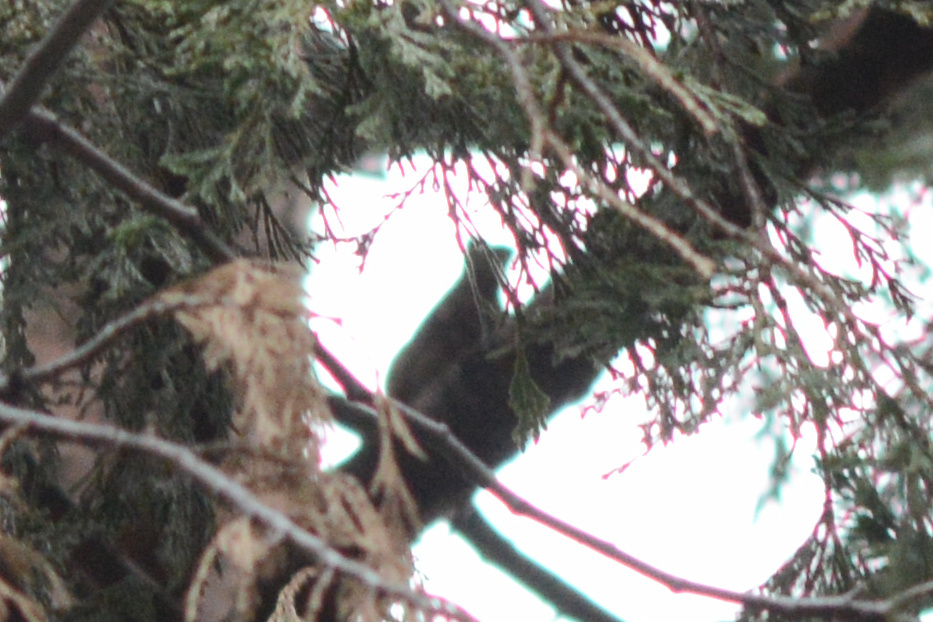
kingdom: Animalia
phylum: Chordata
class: Aves
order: Passeriformes
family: Fringillidae
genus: Loxia
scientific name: Loxia curvirostra
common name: Red crossbill
